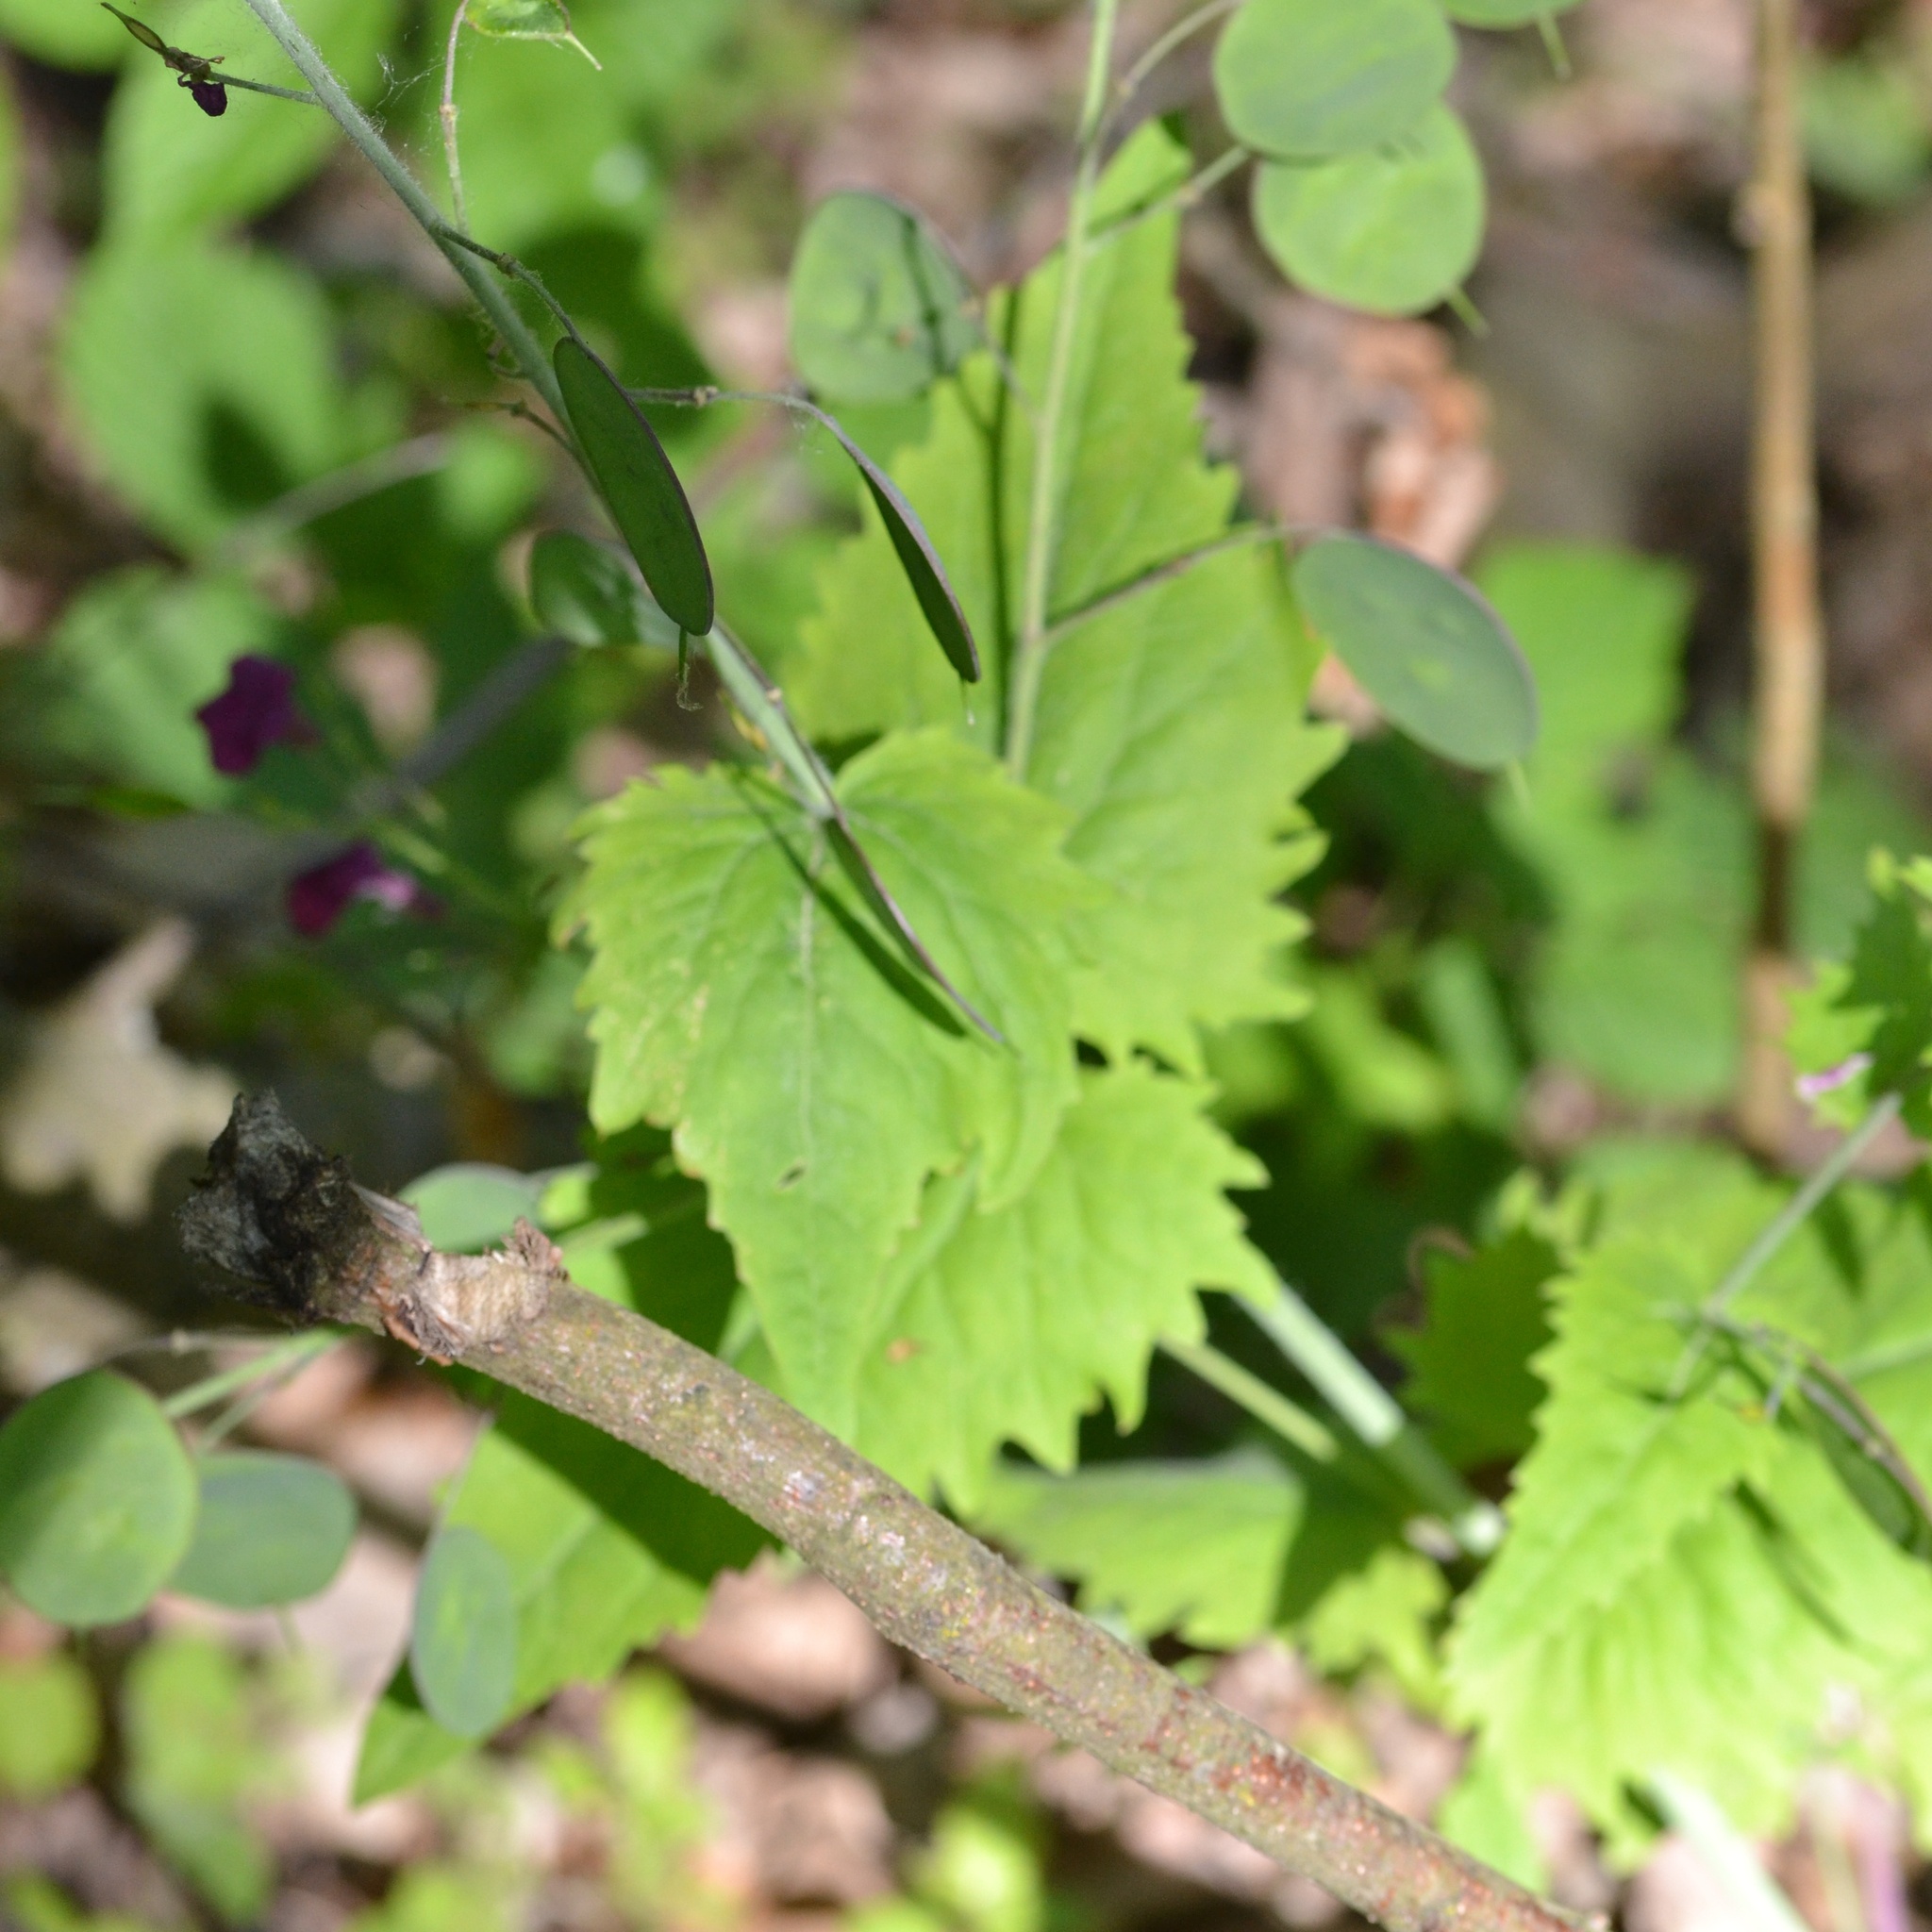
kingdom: Plantae
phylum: Tracheophyta
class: Magnoliopsida
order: Brassicales
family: Brassicaceae
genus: Lunaria
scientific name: Lunaria annua
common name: Honesty
